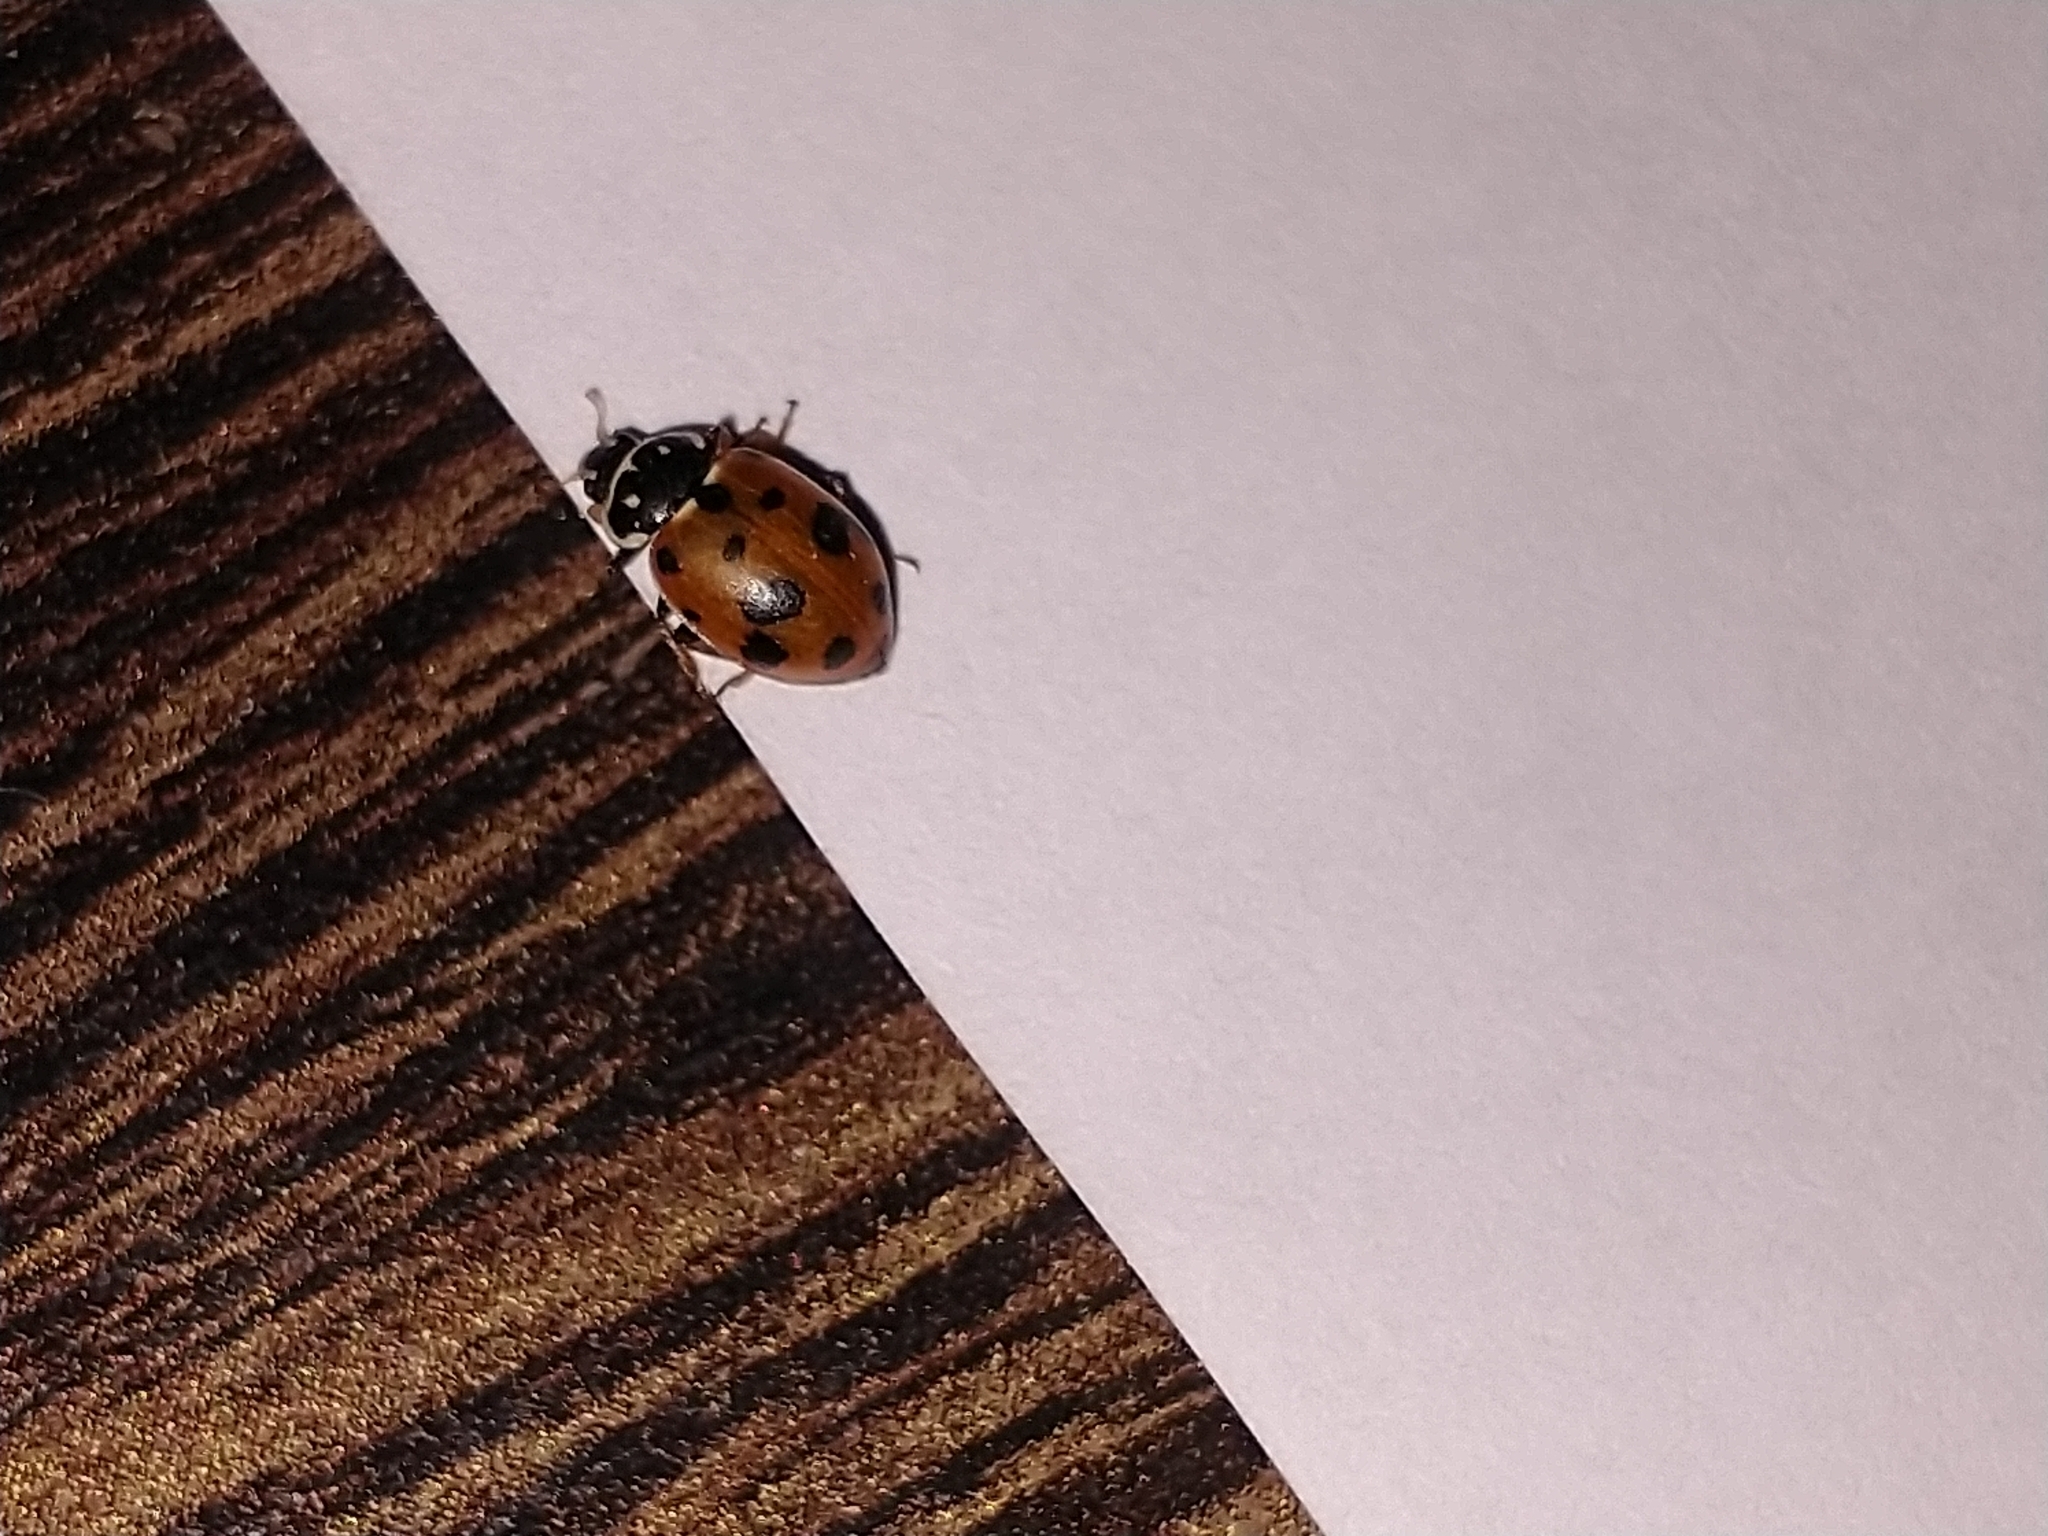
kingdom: Animalia
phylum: Arthropoda
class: Insecta
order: Coleoptera
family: Coccinellidae
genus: Hippodamia
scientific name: Hippodamia variegata
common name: Ladybird beetle
